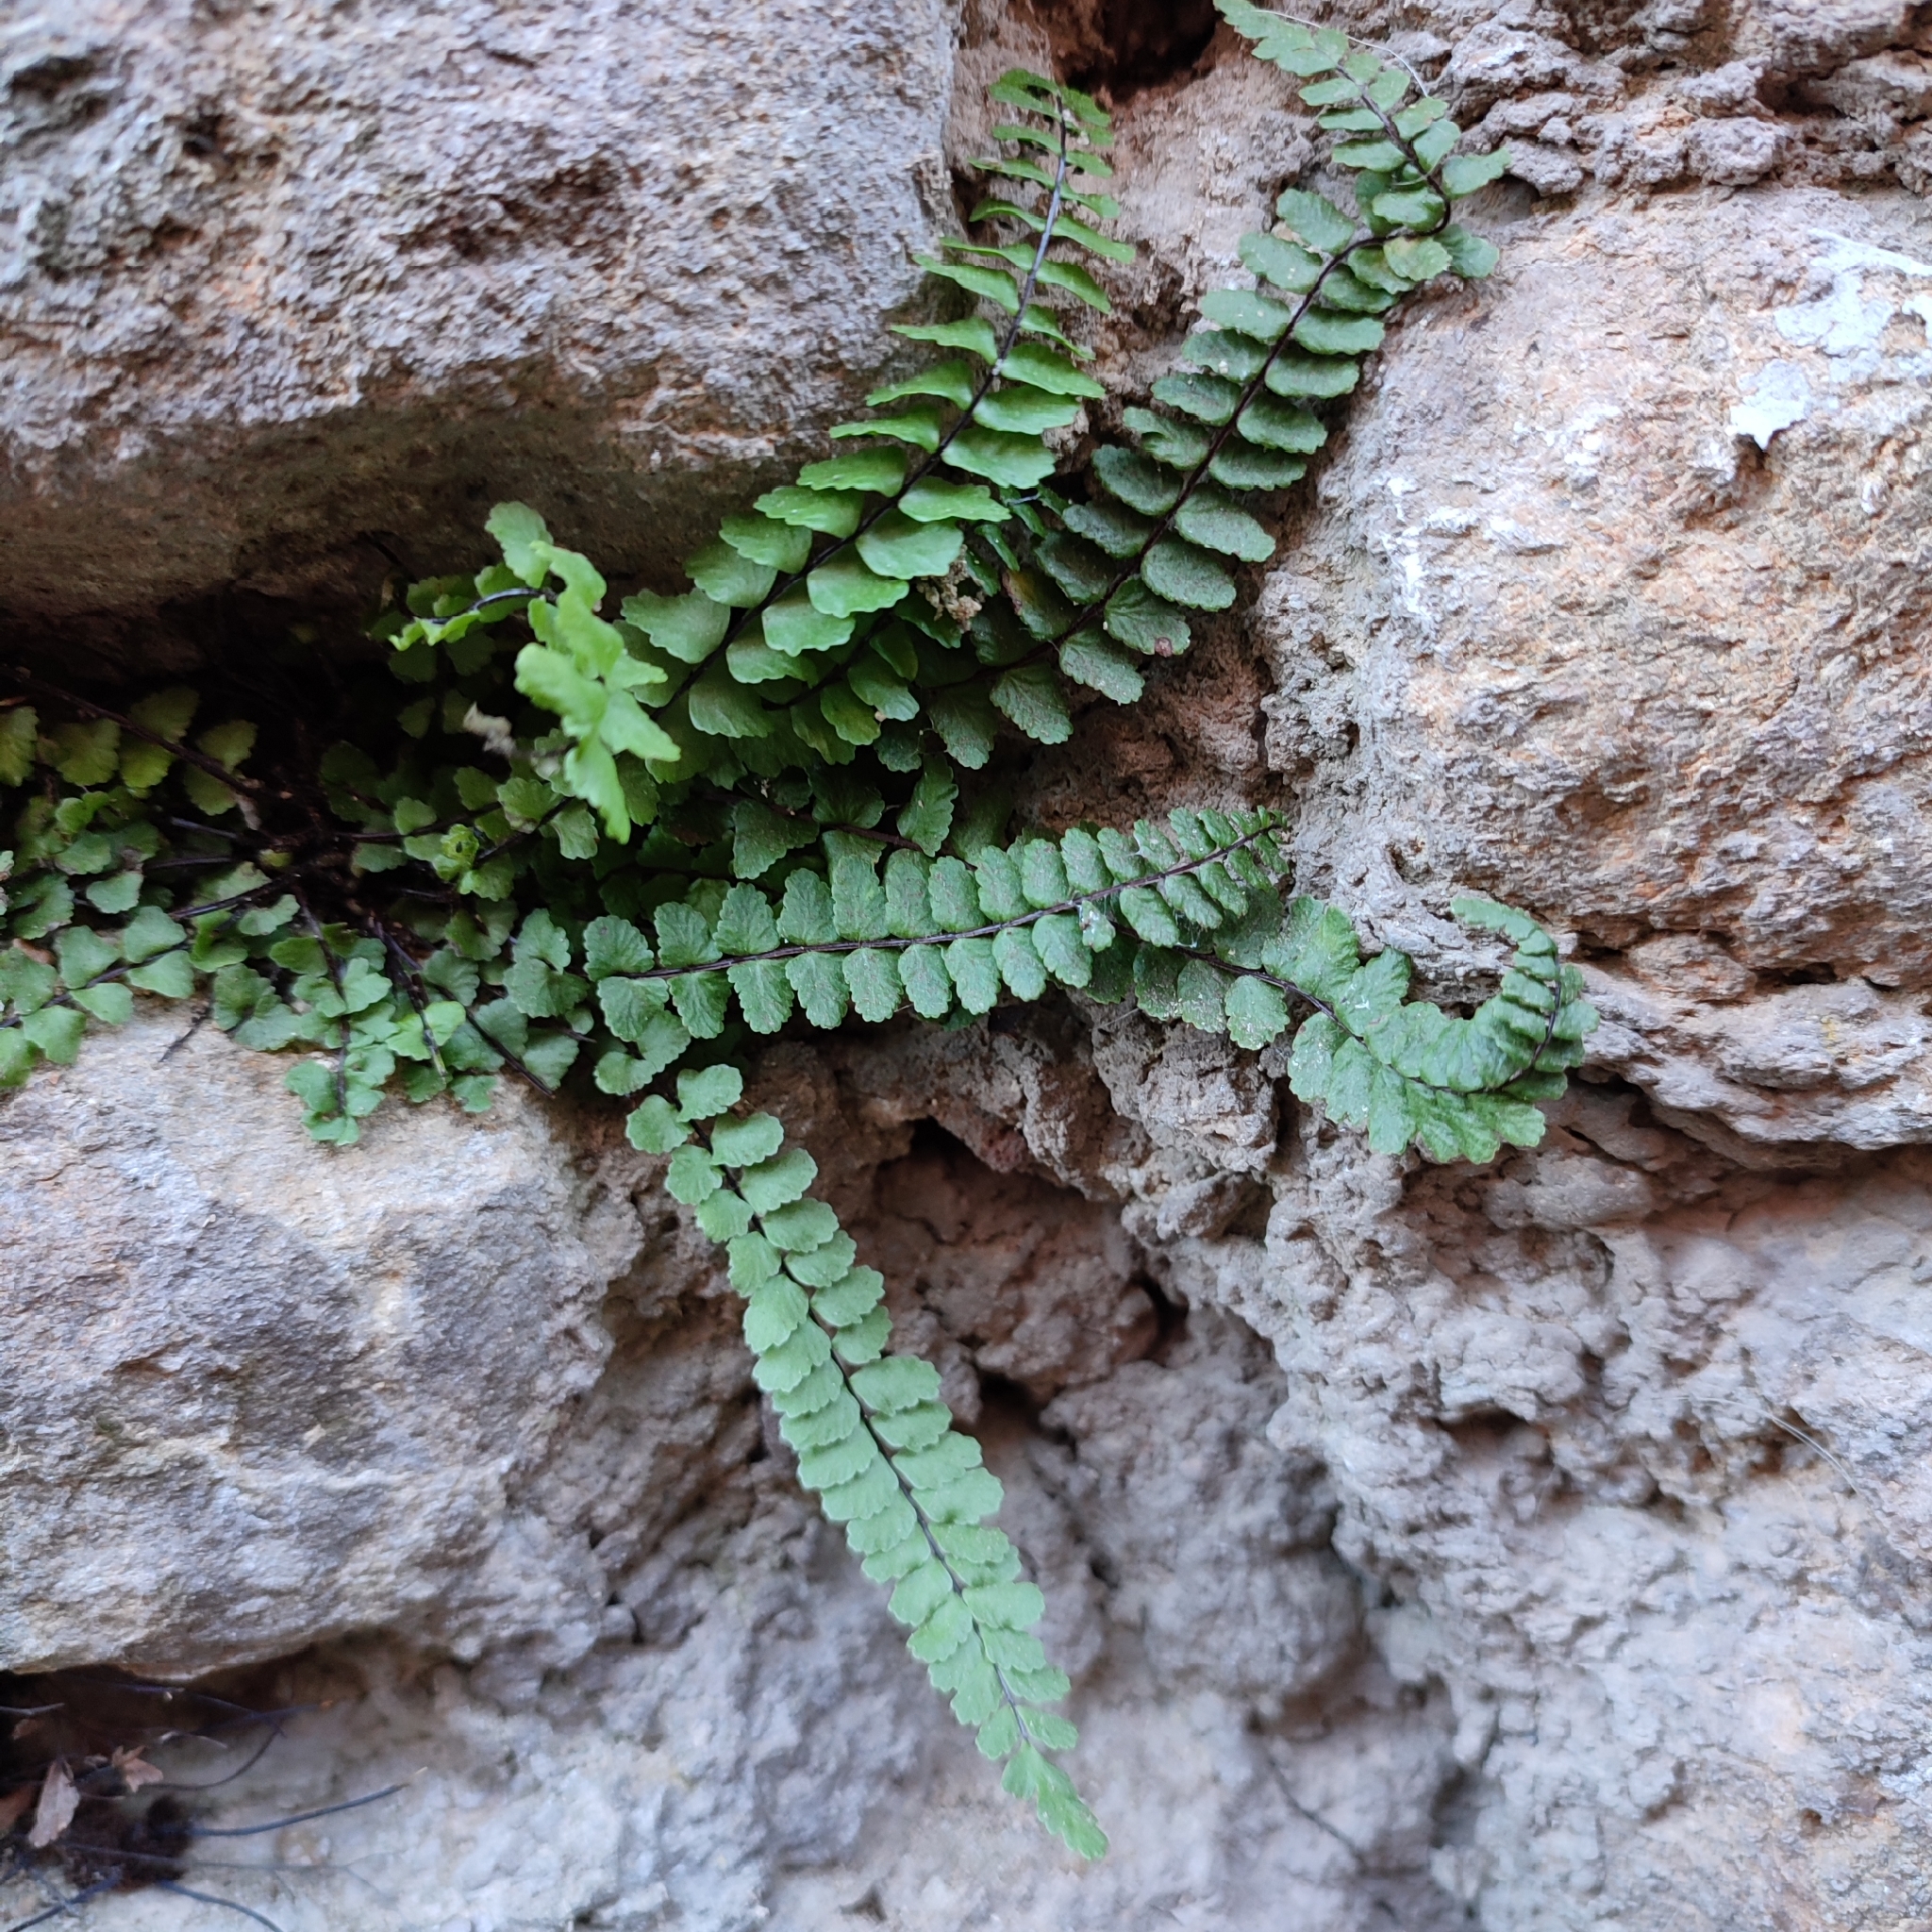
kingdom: Plantae
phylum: Tracheophyta
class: Polypodiopsida
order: Polypodiales
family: Aspleniaceae
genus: Asplenium
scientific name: Asplenium trichomanes
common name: Maidenhair spleenwort
